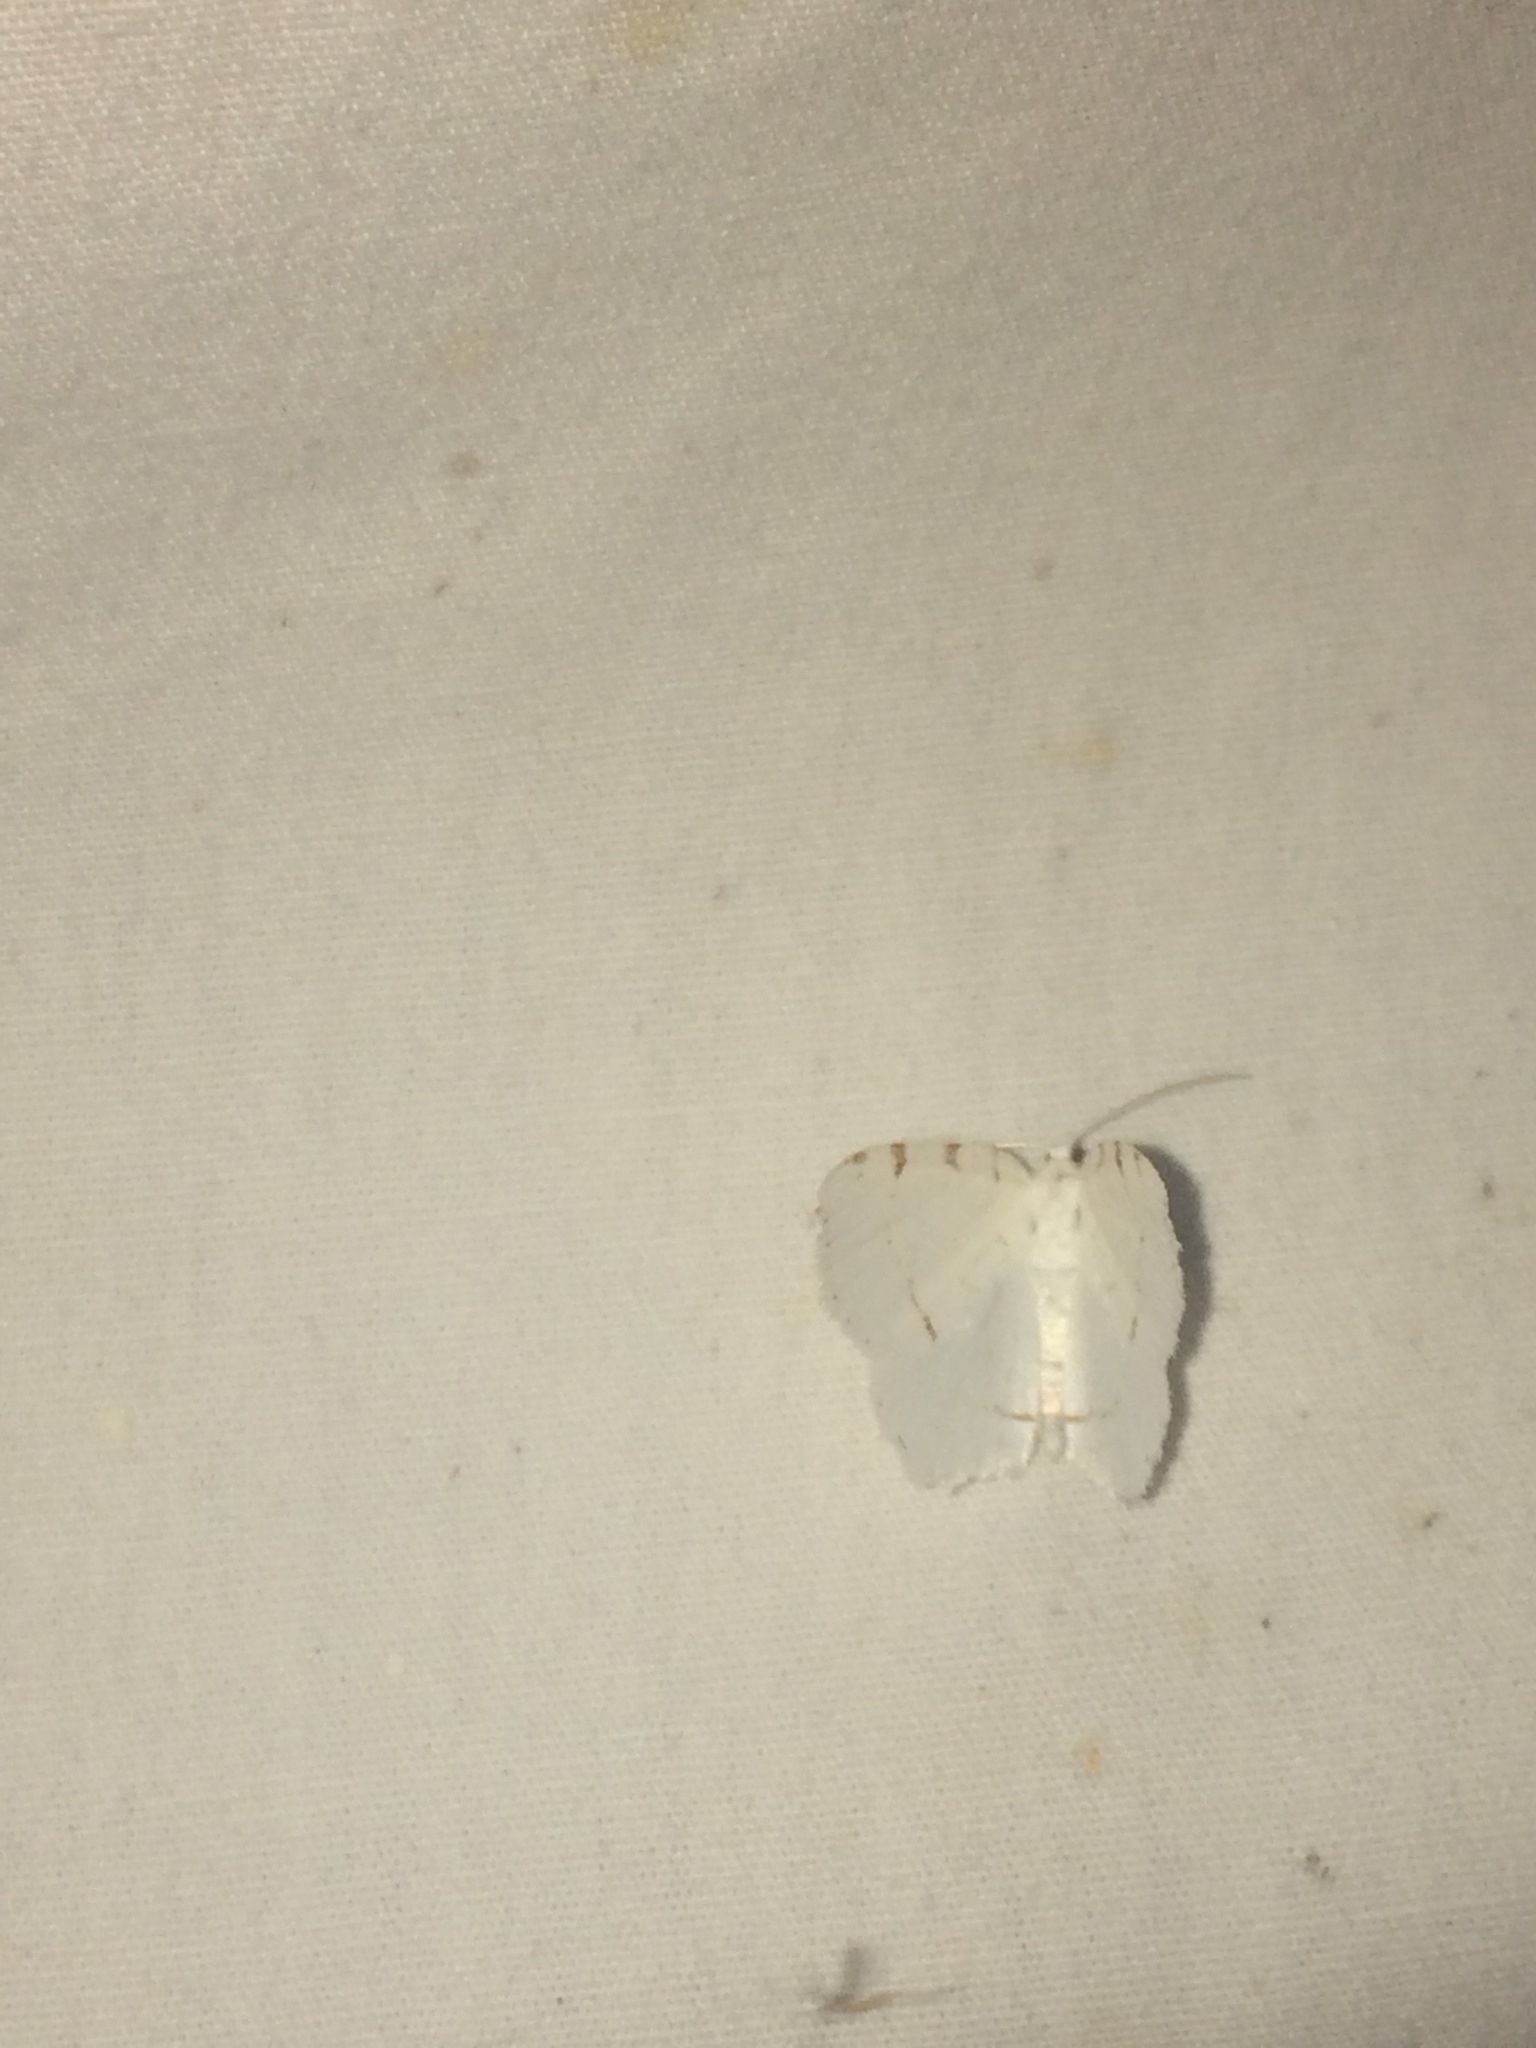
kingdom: Animalia
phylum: Arthropoda
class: Insecta
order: Lepidoptera
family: Geometridae
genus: Macaria
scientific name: Macaria pustularia
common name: Lesser maple spanworm moth
